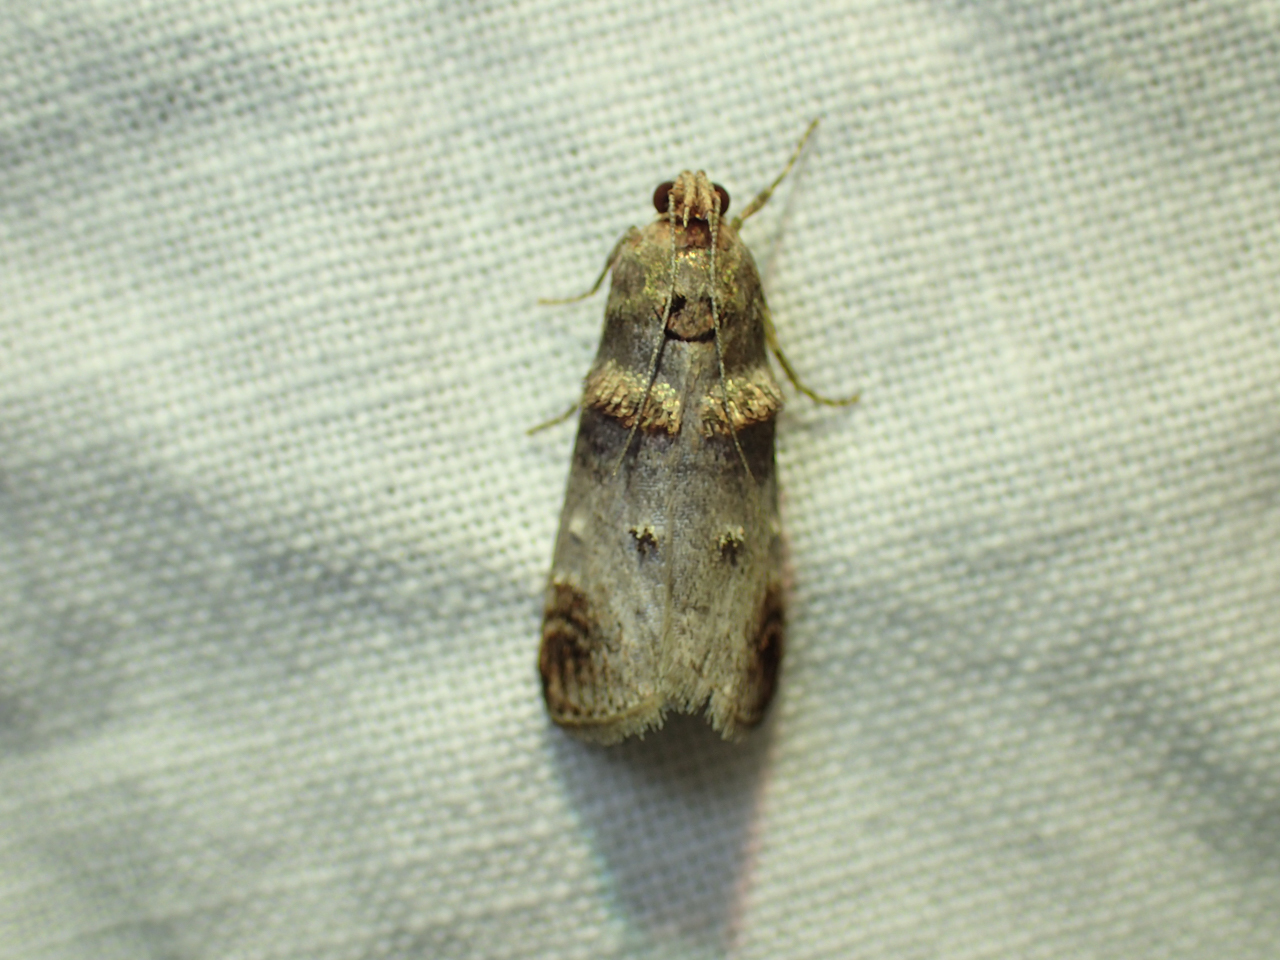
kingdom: Animalia
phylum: Arthropoda
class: Insecta
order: Lepidoptera
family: Pyralidae
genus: Oneida
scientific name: Oneida lunulalis
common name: Orange-tufted oneida moth
